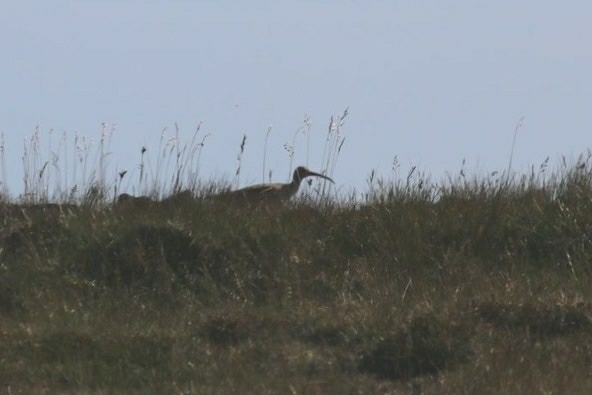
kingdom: Animalia
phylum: Chordata
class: Aves
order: Charadriiformes
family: Scolopacidae
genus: Numenius
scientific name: Numenius phaeopus
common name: Whimbrel
